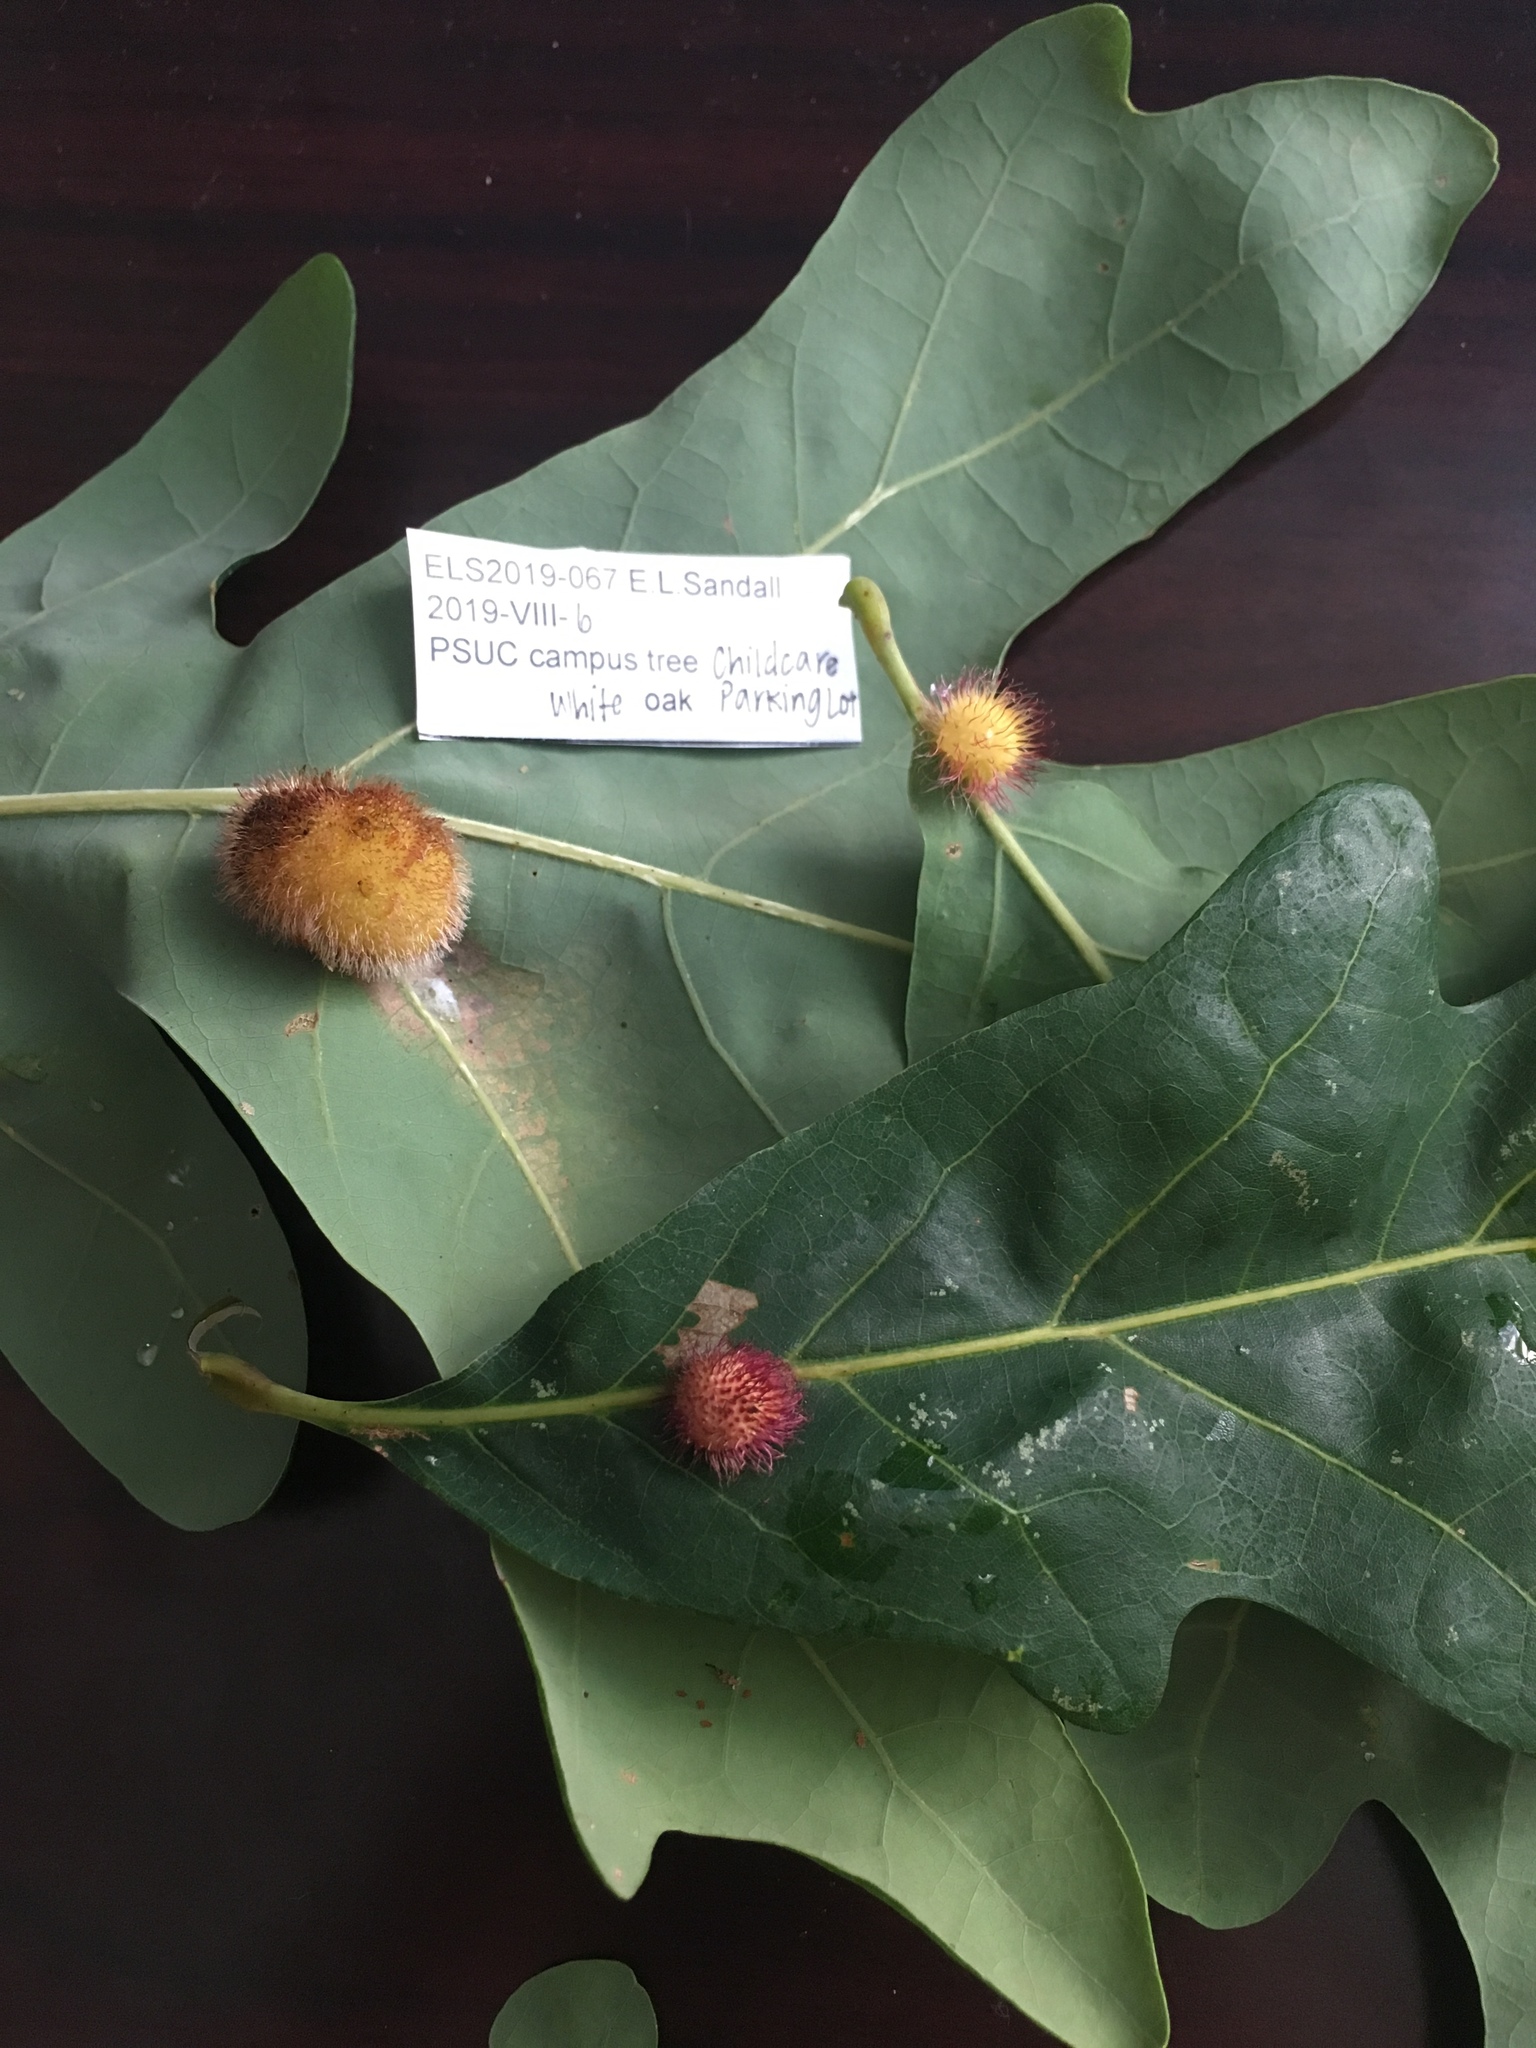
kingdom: Animalia
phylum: Arthropoda
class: Insecta
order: Hymenoptera
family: Cynipidae
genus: Acraspis
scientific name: Acraspis erinacei
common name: Hedgehog gall wasp
